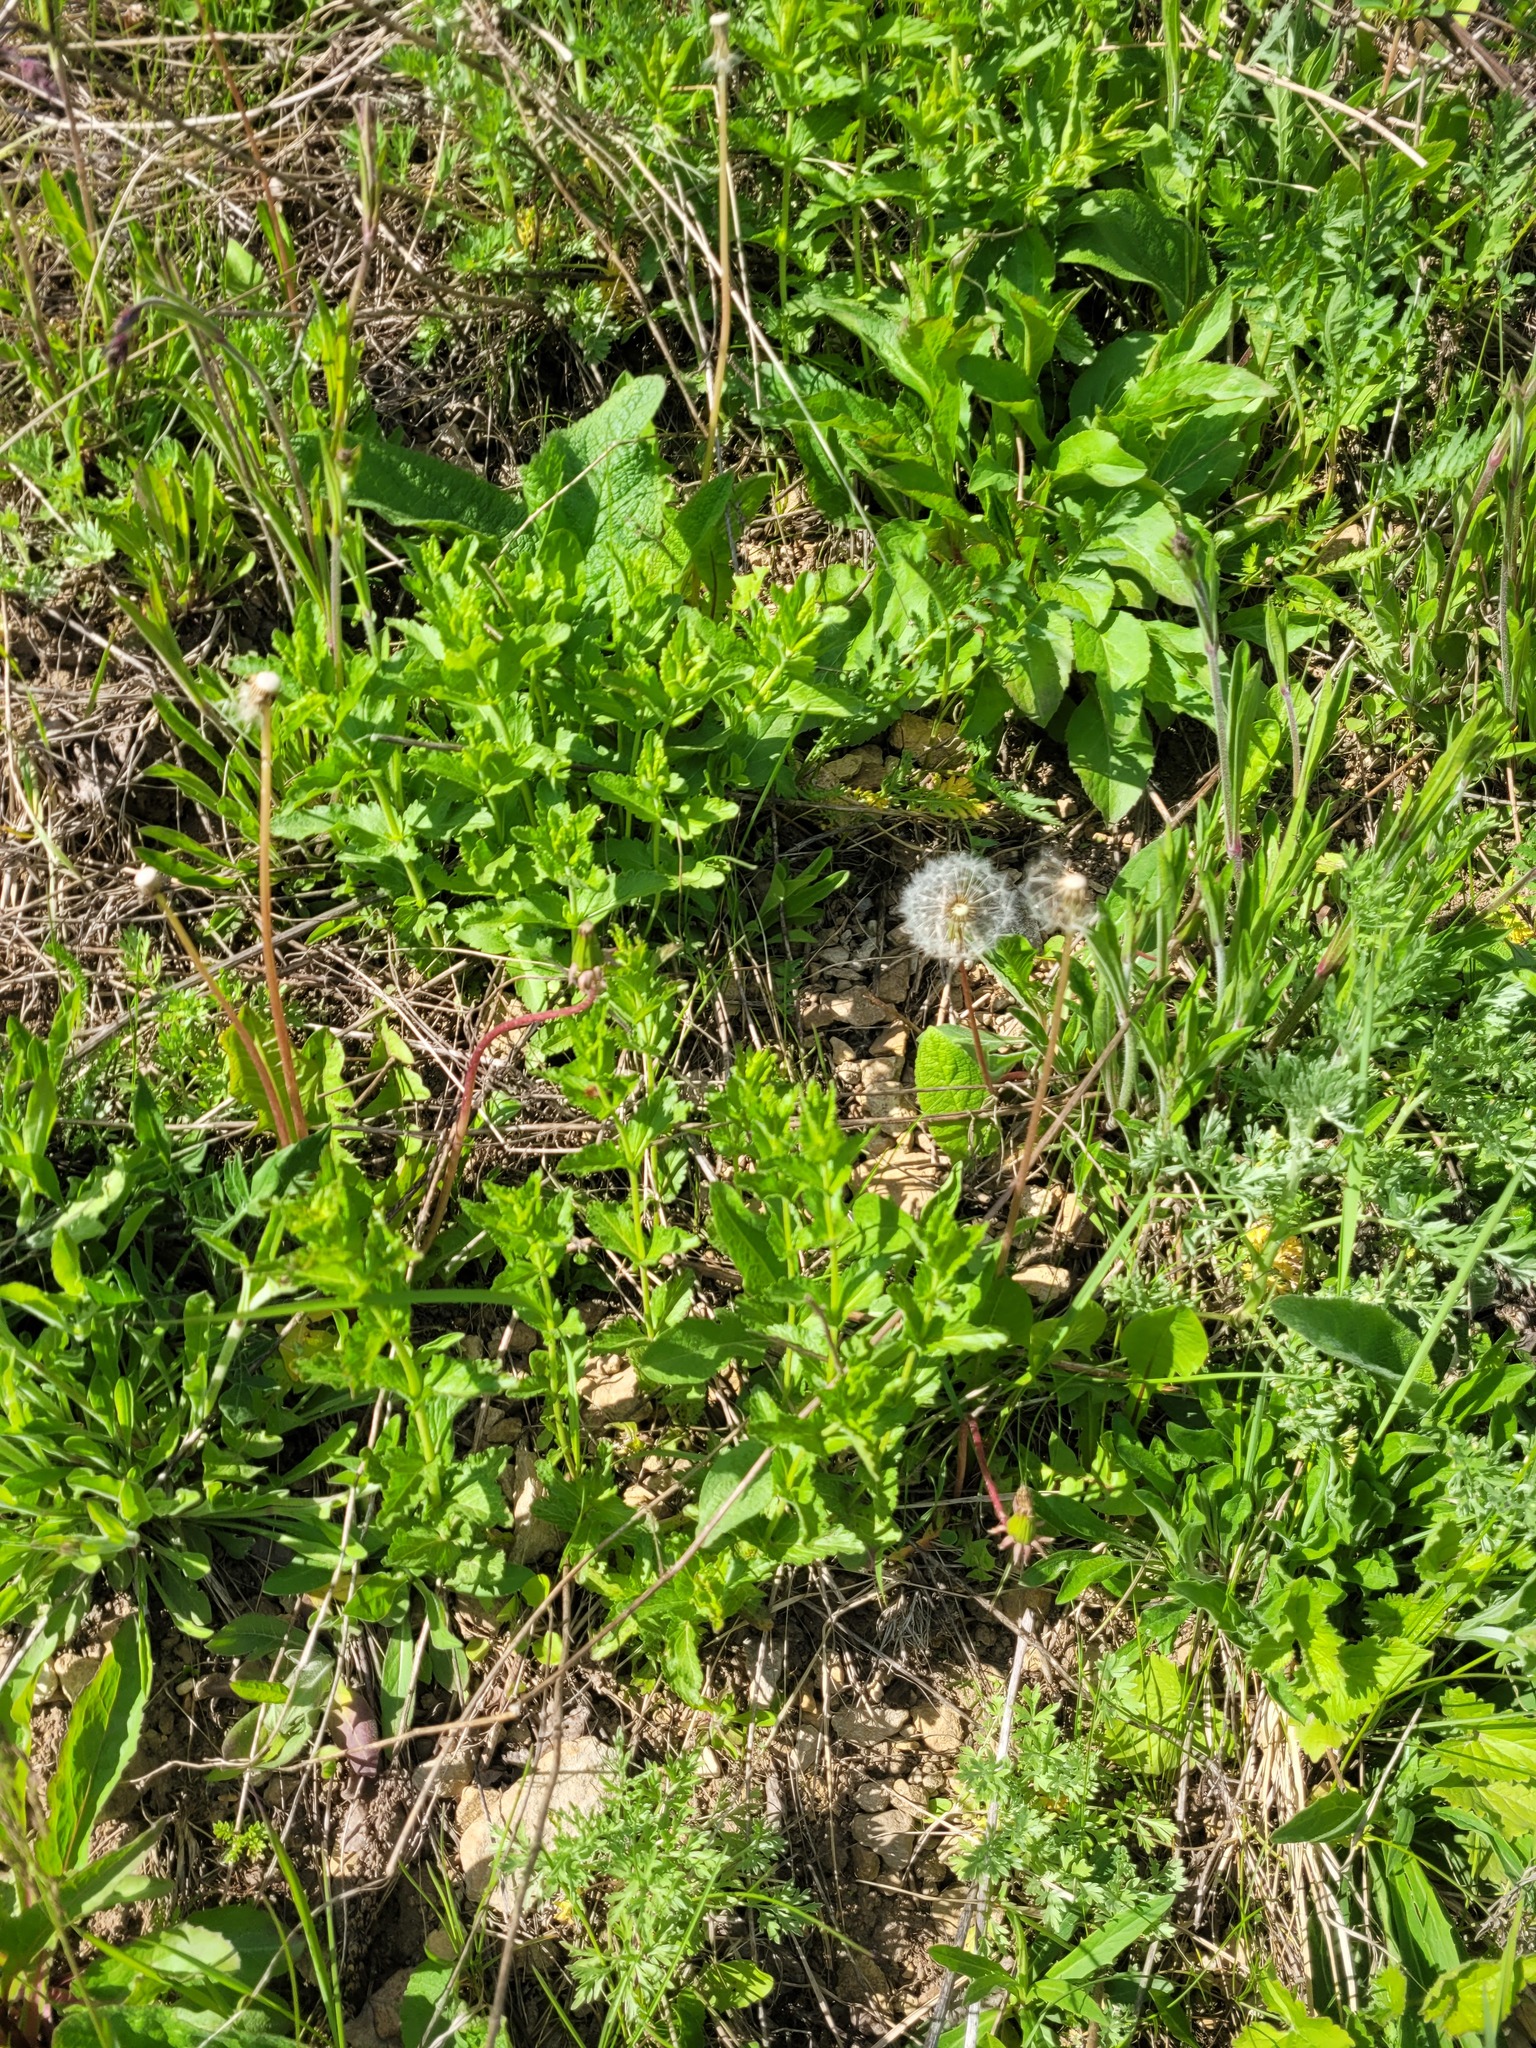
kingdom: Plantae
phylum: Tracheophyta
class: Magnoliopsida
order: Lamiales
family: Plantaginaceae
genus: Veronica
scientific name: Veronica teucrium
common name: Large speedwell
